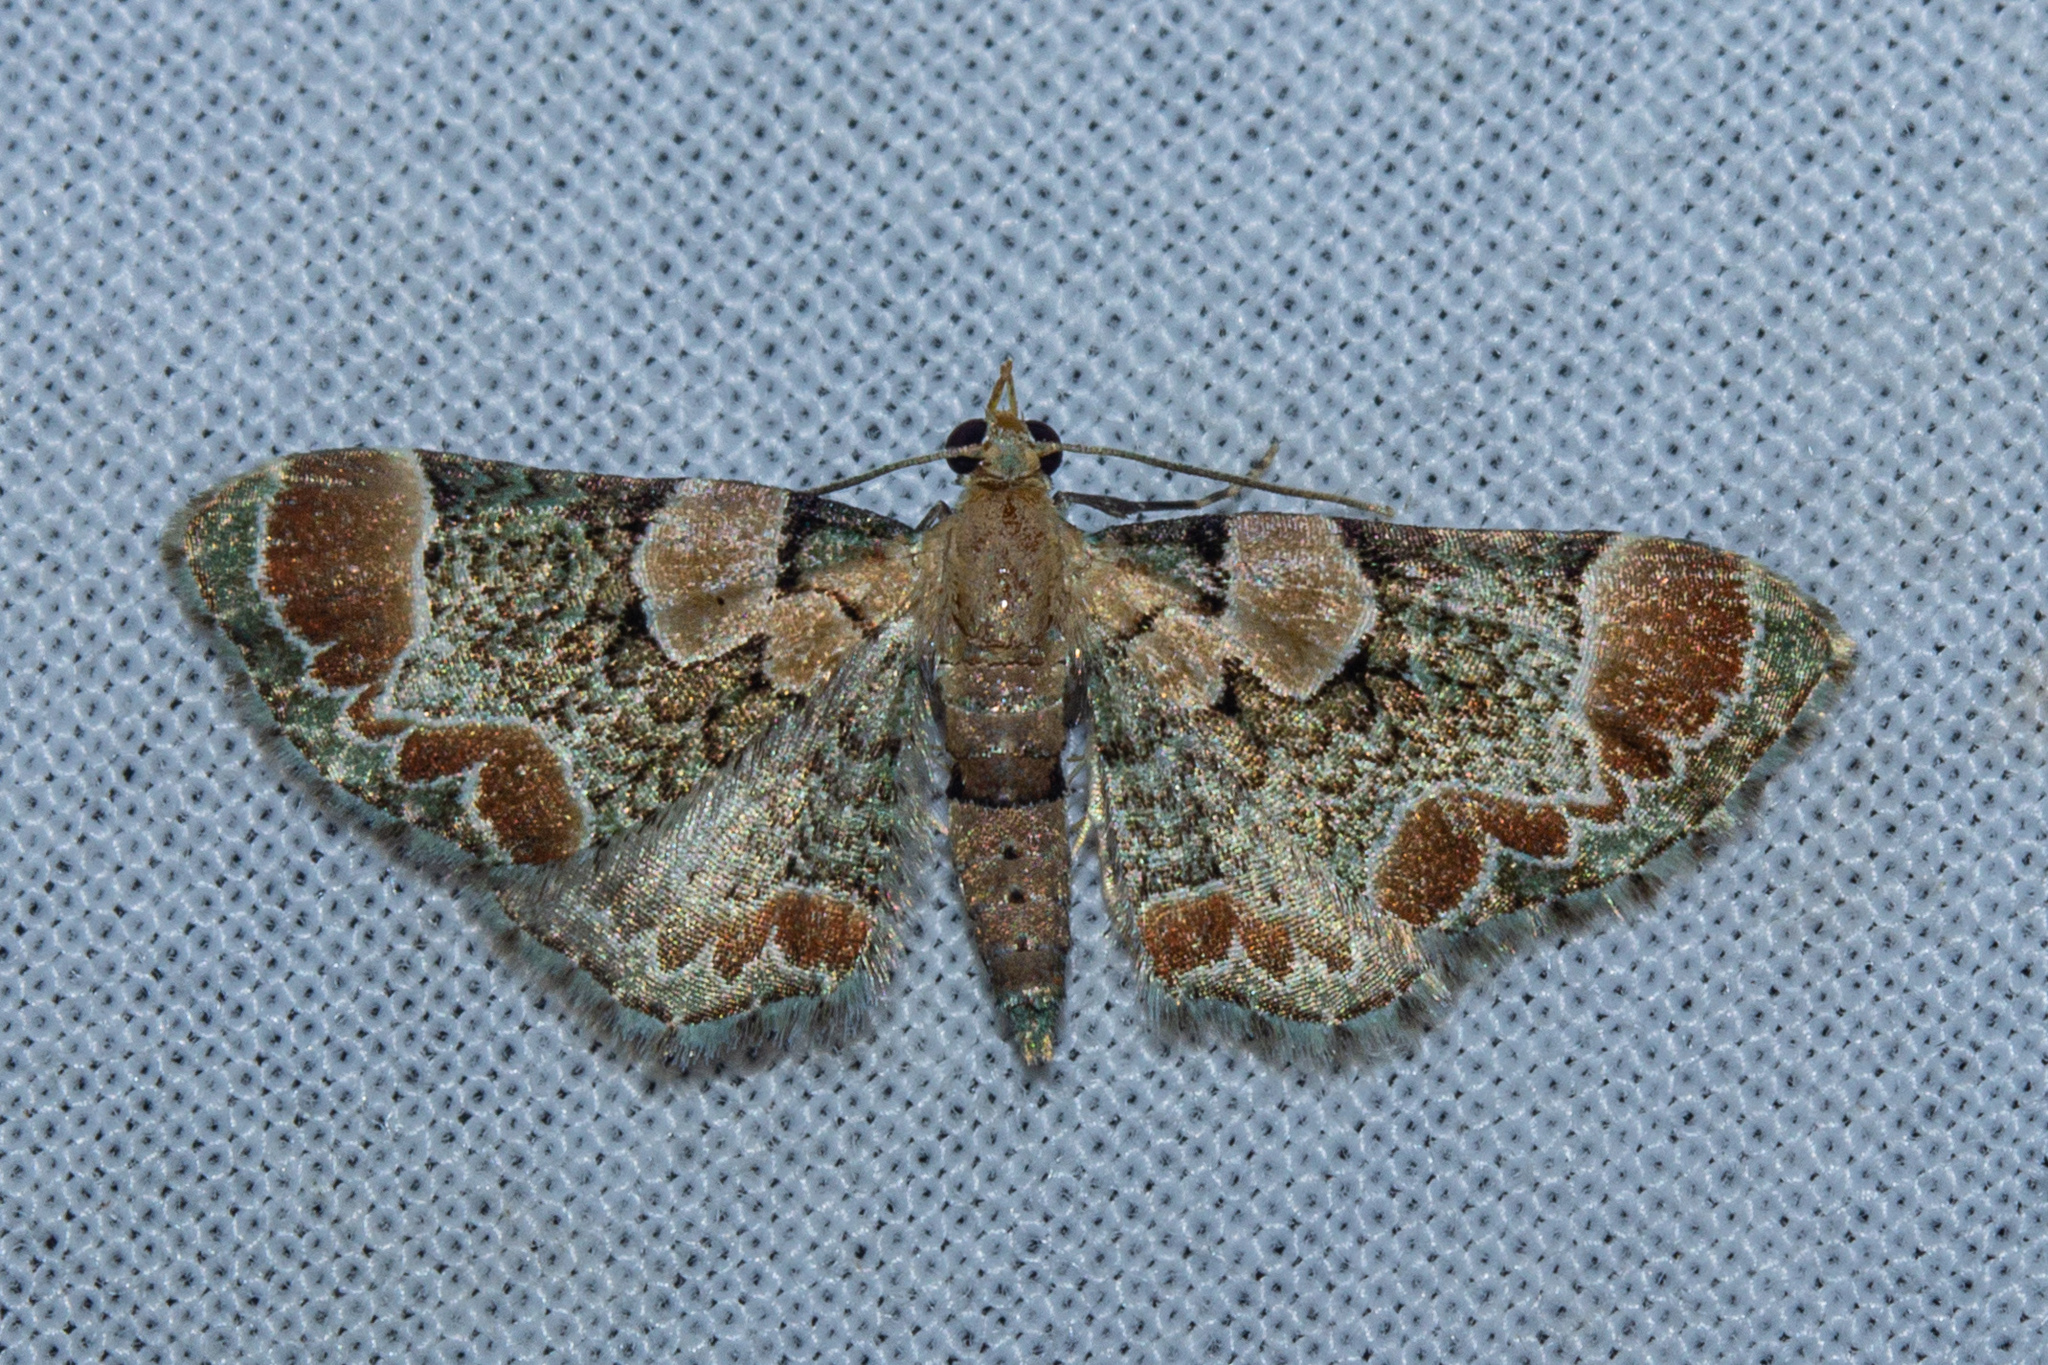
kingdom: Animalia
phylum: Arthropoda
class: Insecta
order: Lepidoptera
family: Geometridae
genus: Chloroclystis
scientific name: Chloroclystis
